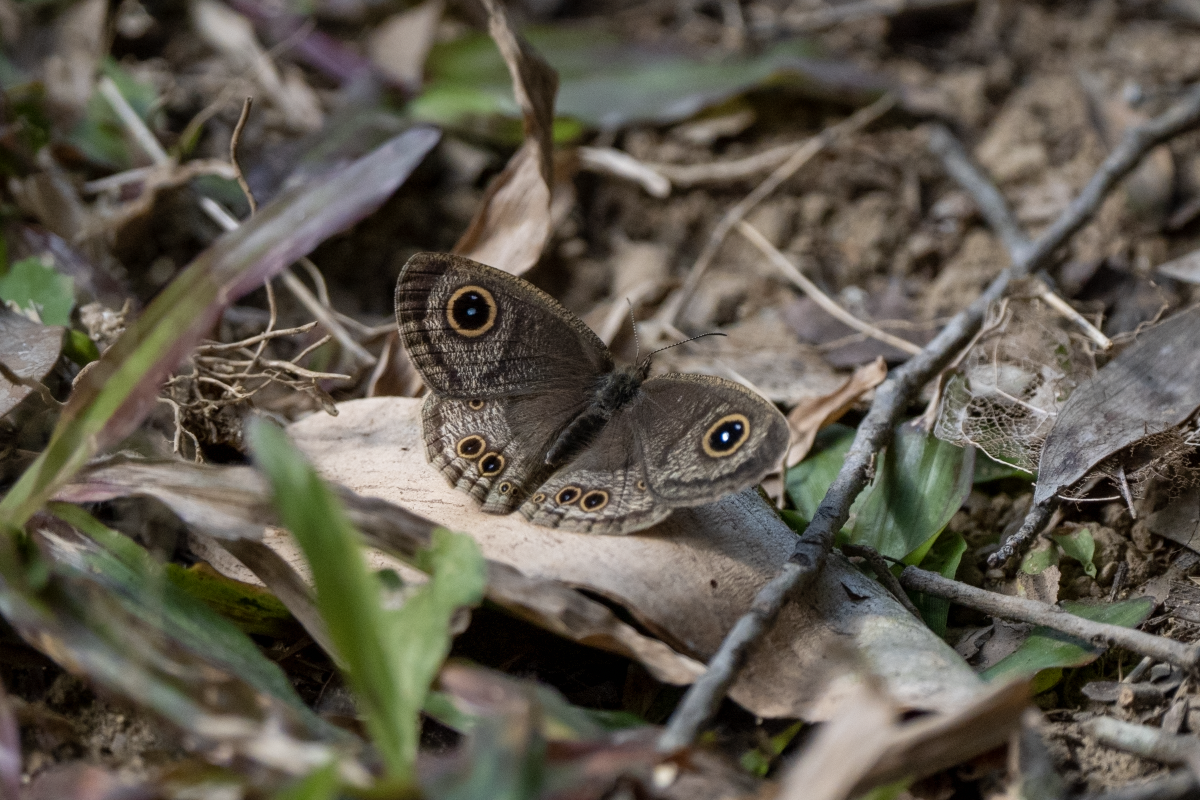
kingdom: Animalia
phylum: Arthropoda
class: Insecta
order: Lepidoptera
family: Nymphalidae
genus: Ypthima
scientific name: Ypthima baldus
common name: Common five-ring
